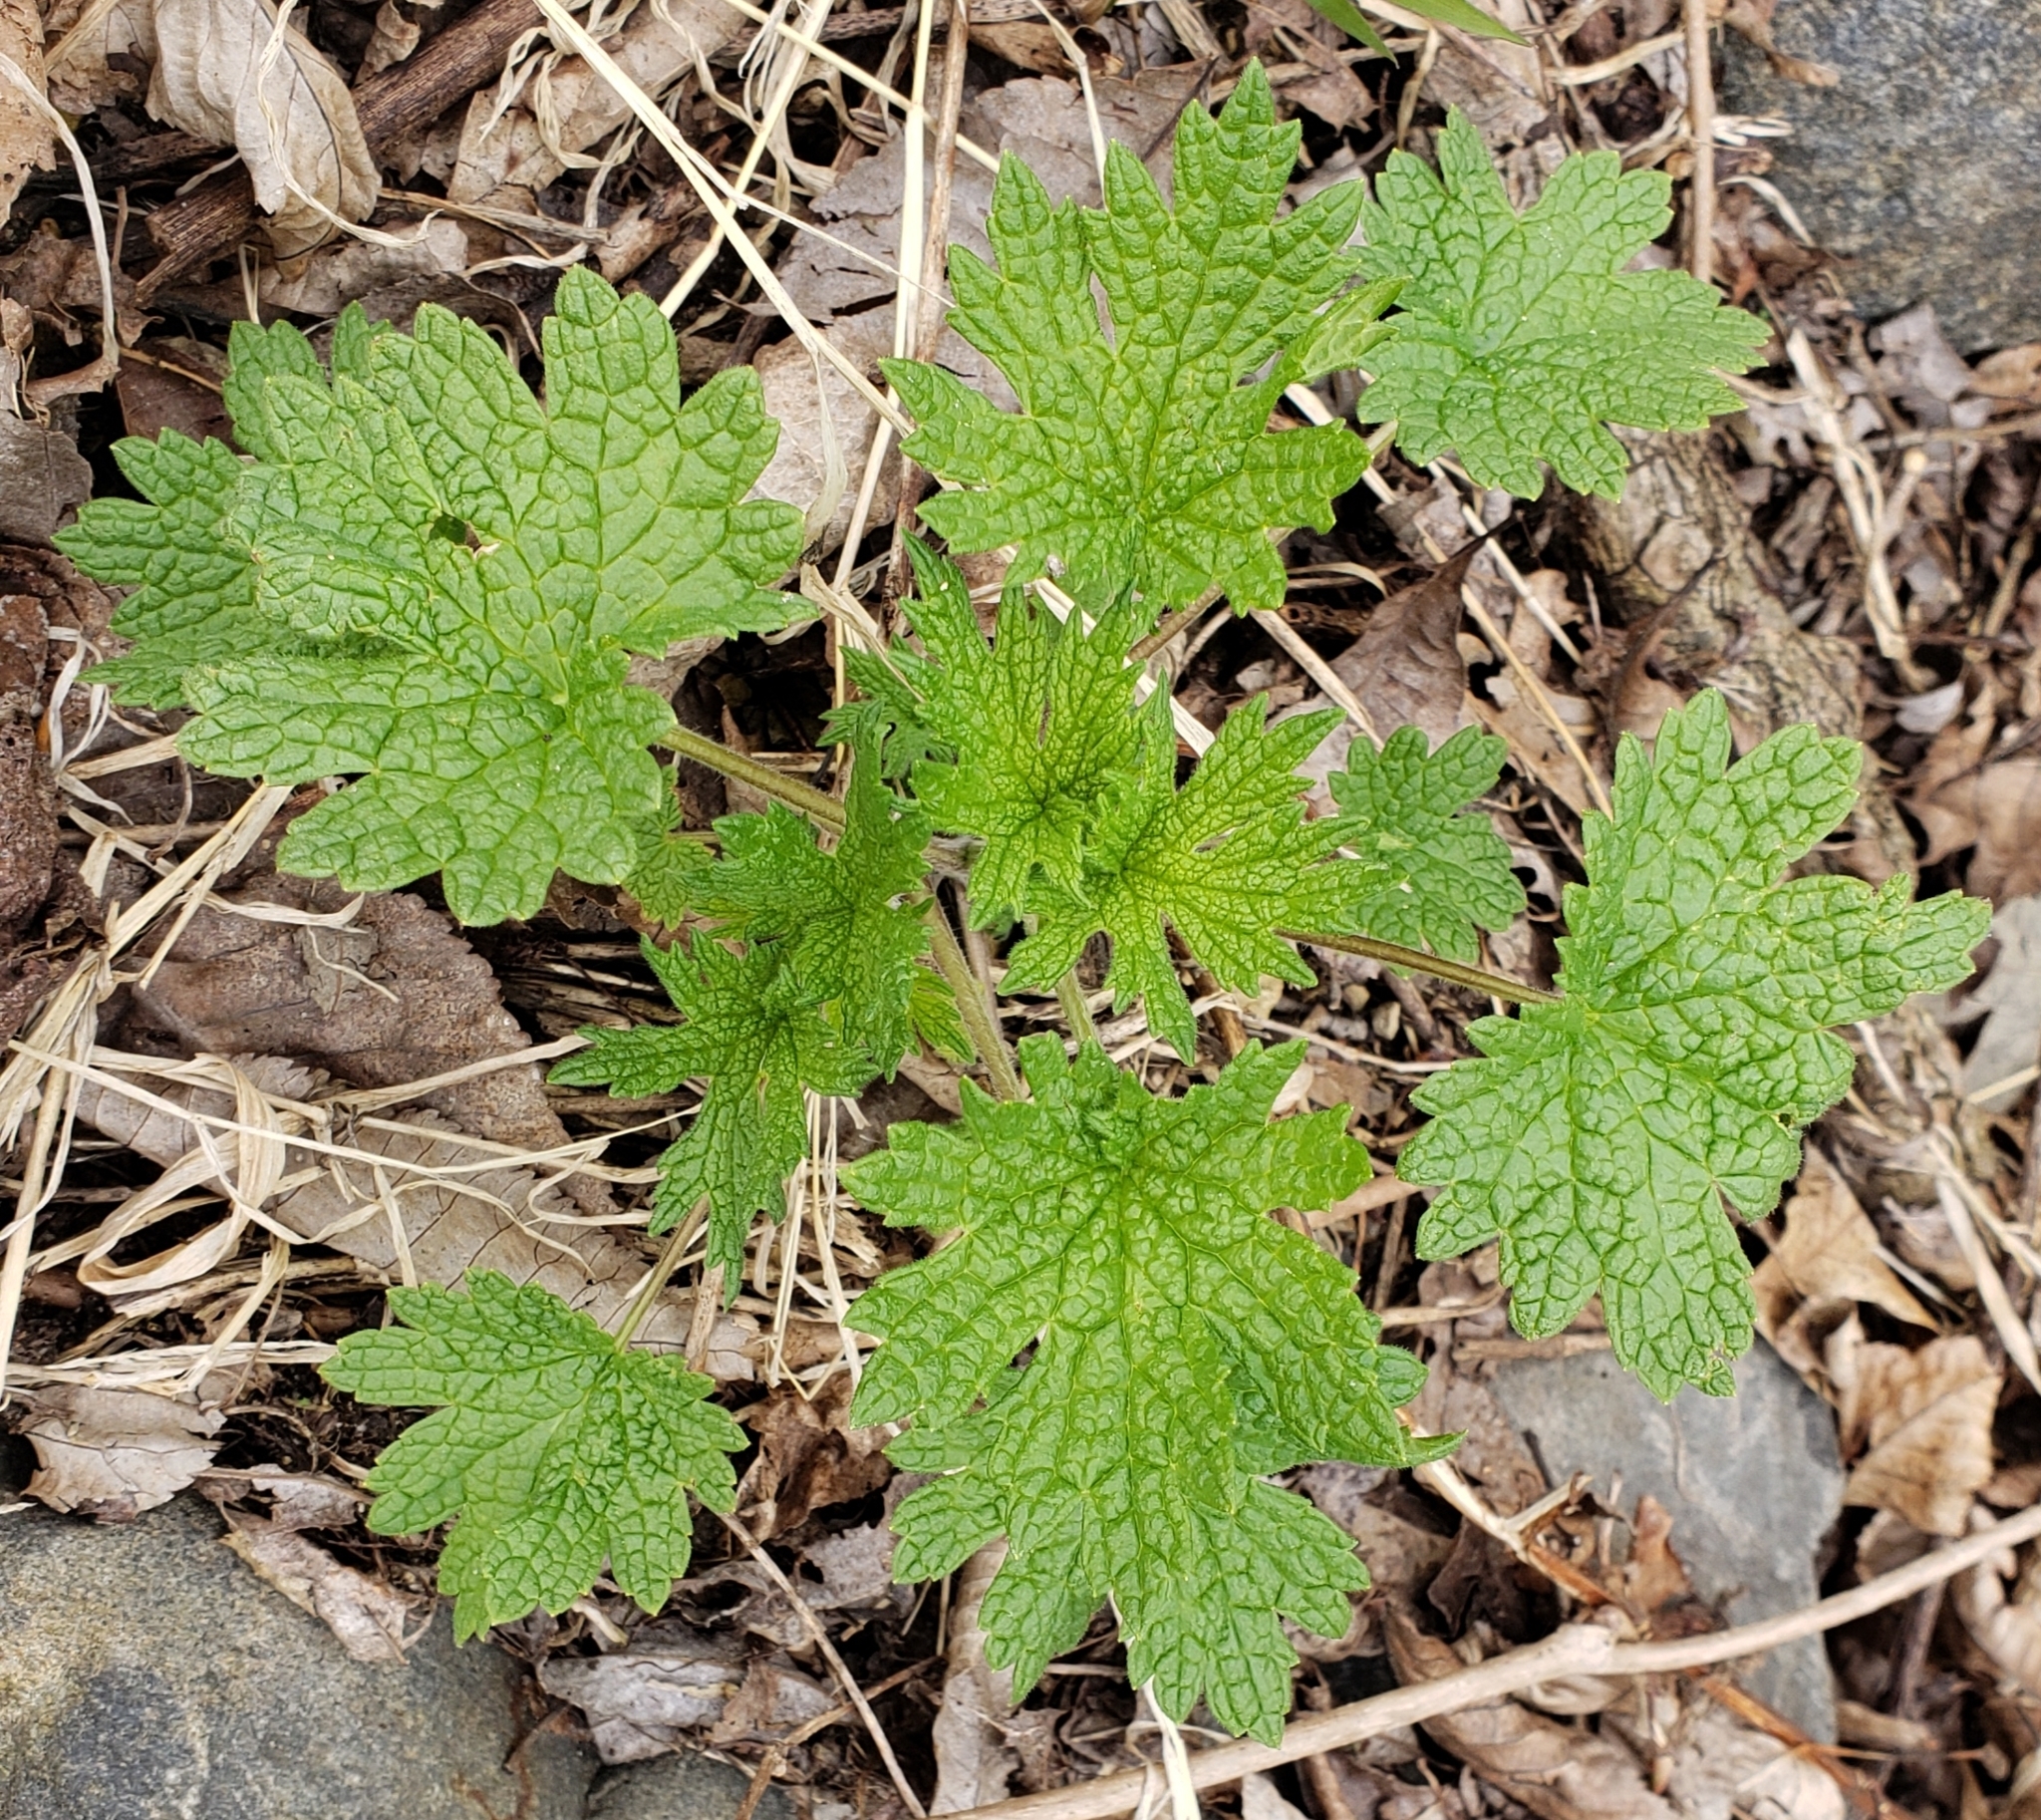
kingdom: Plantae
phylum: Tracheophyta
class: Magnoliopsida
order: Lamiales
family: Lamiaceae
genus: Leonurus
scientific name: Leonurus cardiaca
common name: Motherwort
